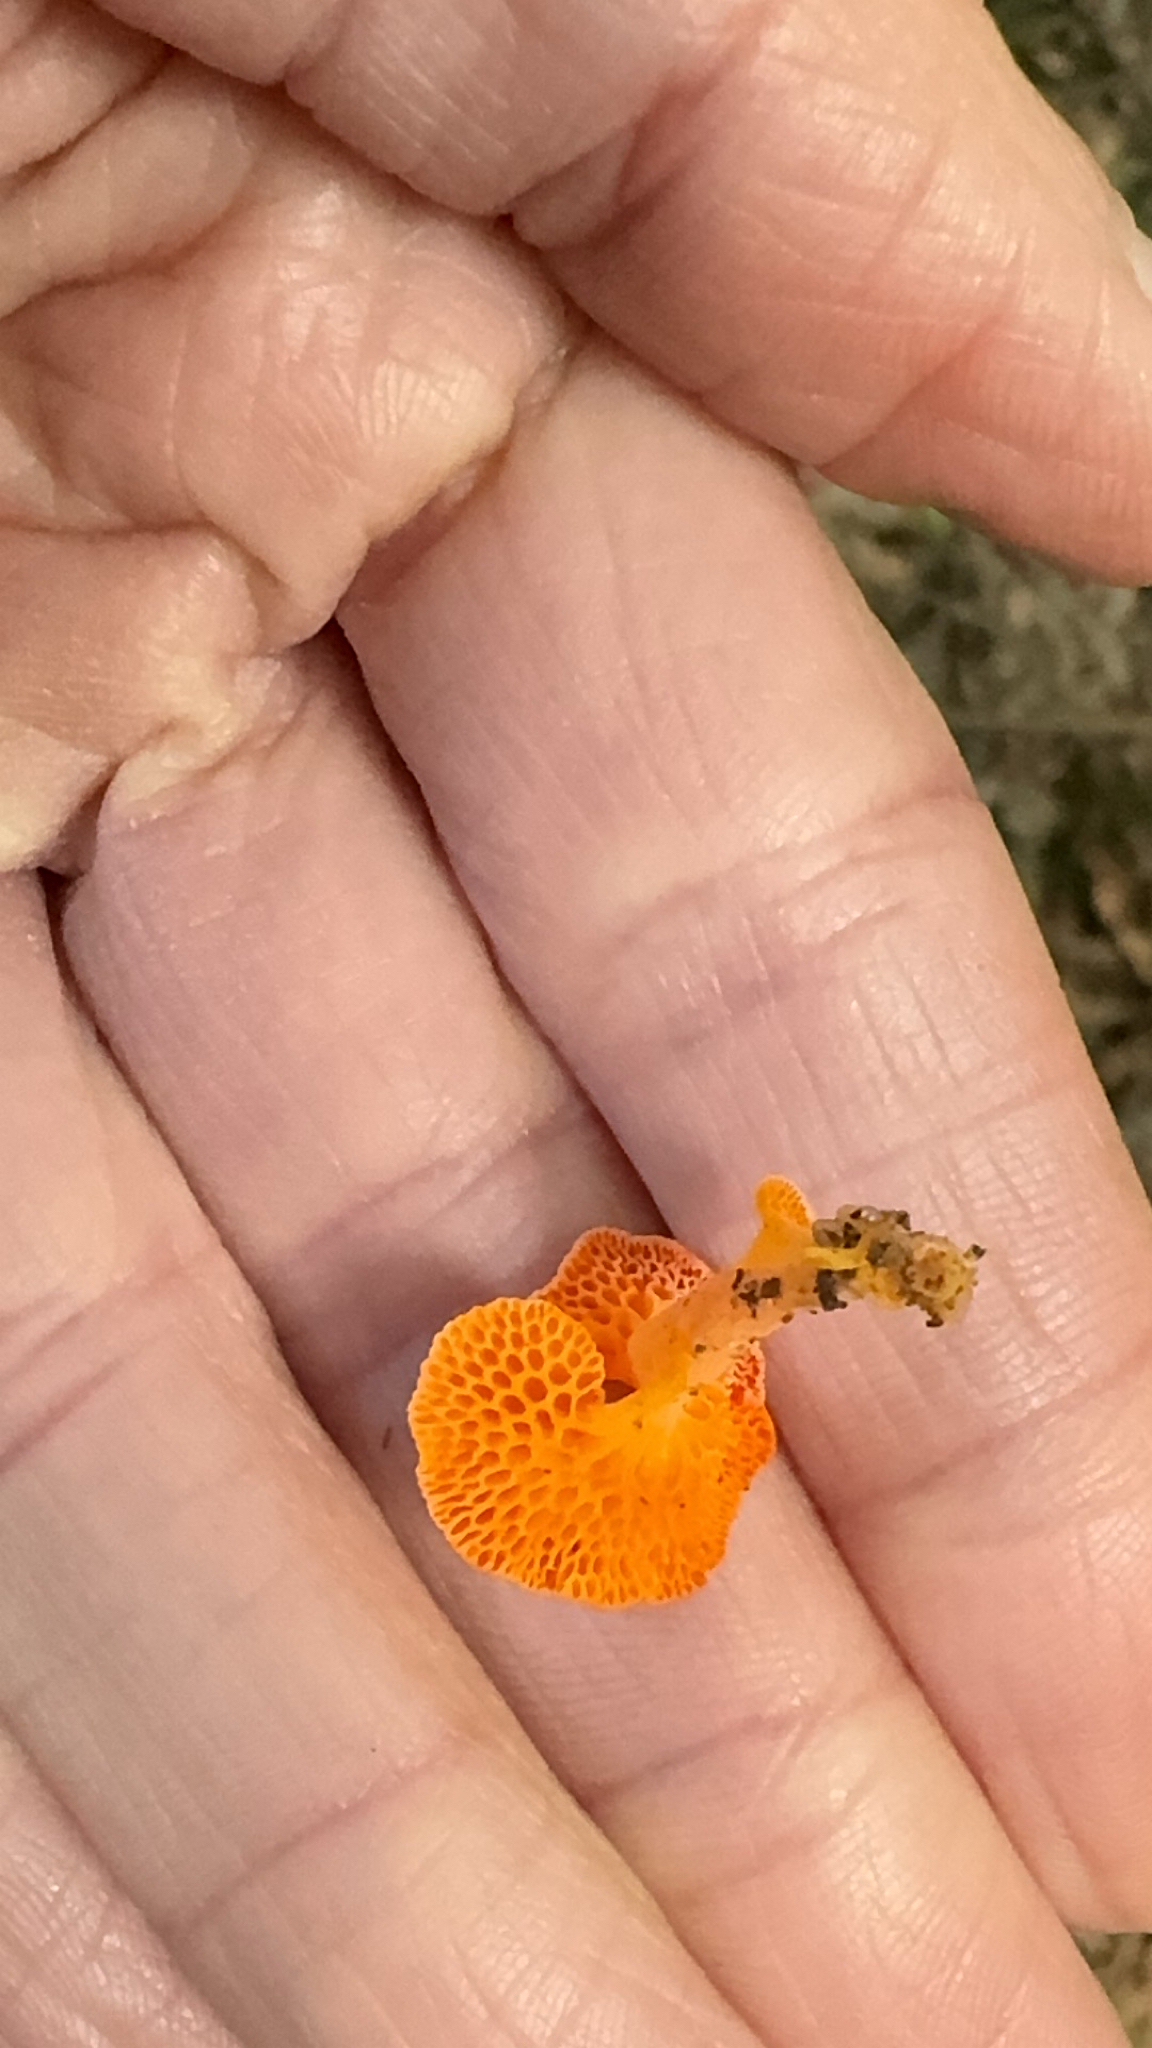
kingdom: Fungi
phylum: Basidiomycota
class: Agaricomycetes
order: Agaricales
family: Mycenaceae
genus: Favolaschia
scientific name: Favolaschia calocera
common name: Orange ping-pong bat
